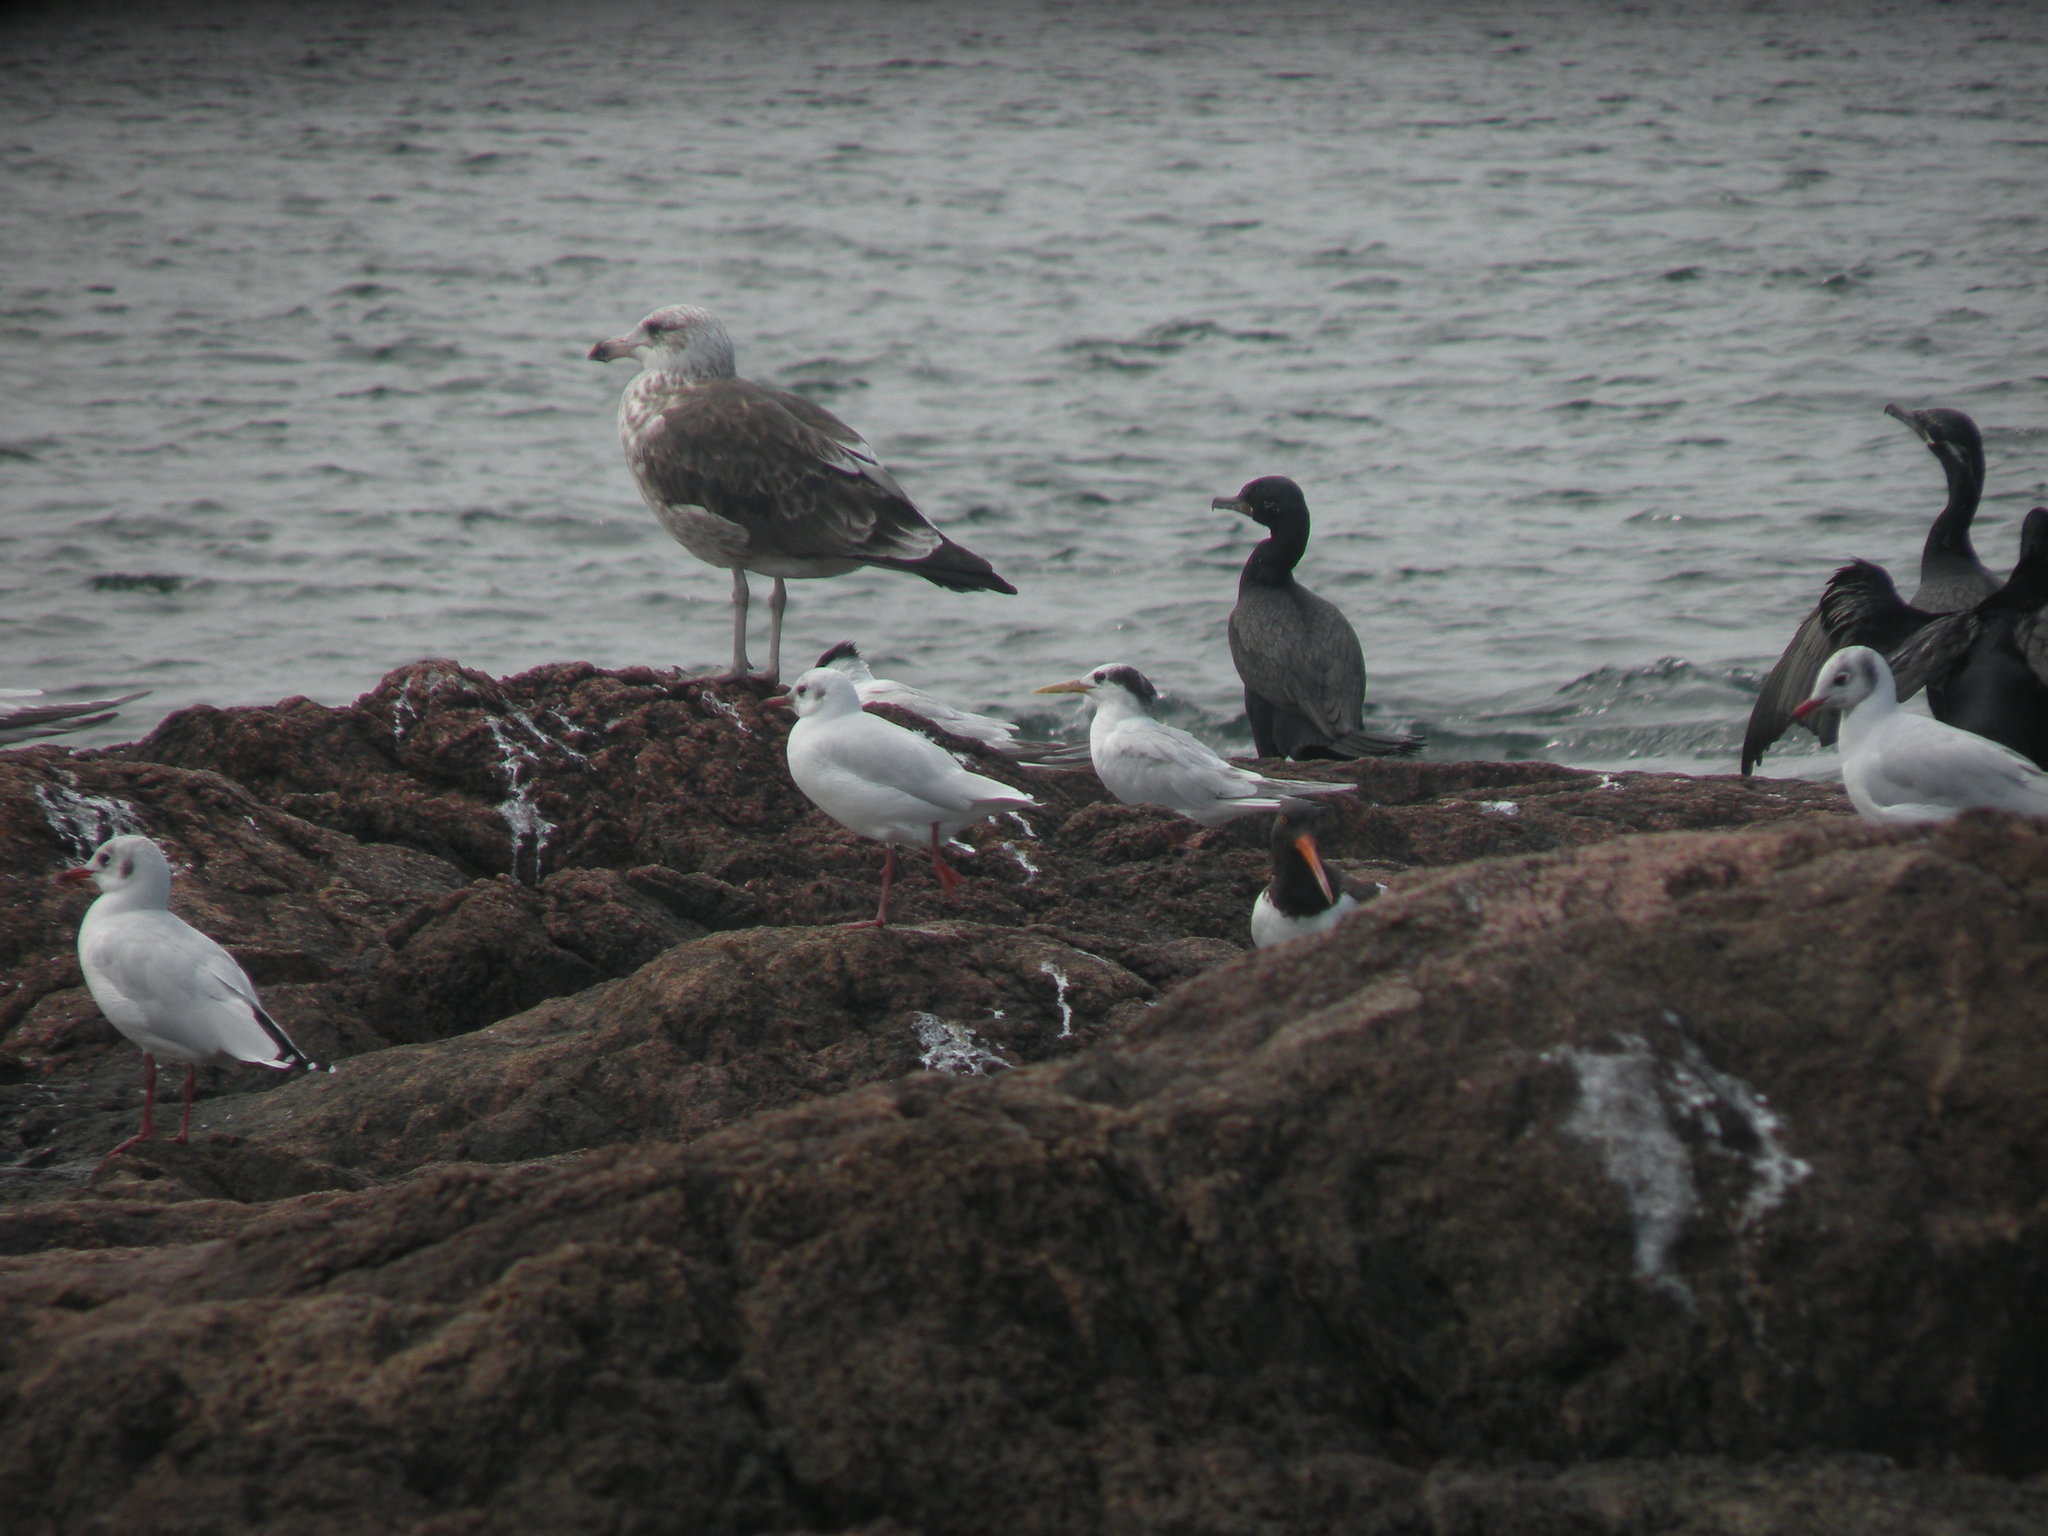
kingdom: Animalia
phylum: Chordata
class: Aves
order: Charadriiformes
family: Laridae
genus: Thalasseus
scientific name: Thalasseus sandvicensis
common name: Sandwich tern
